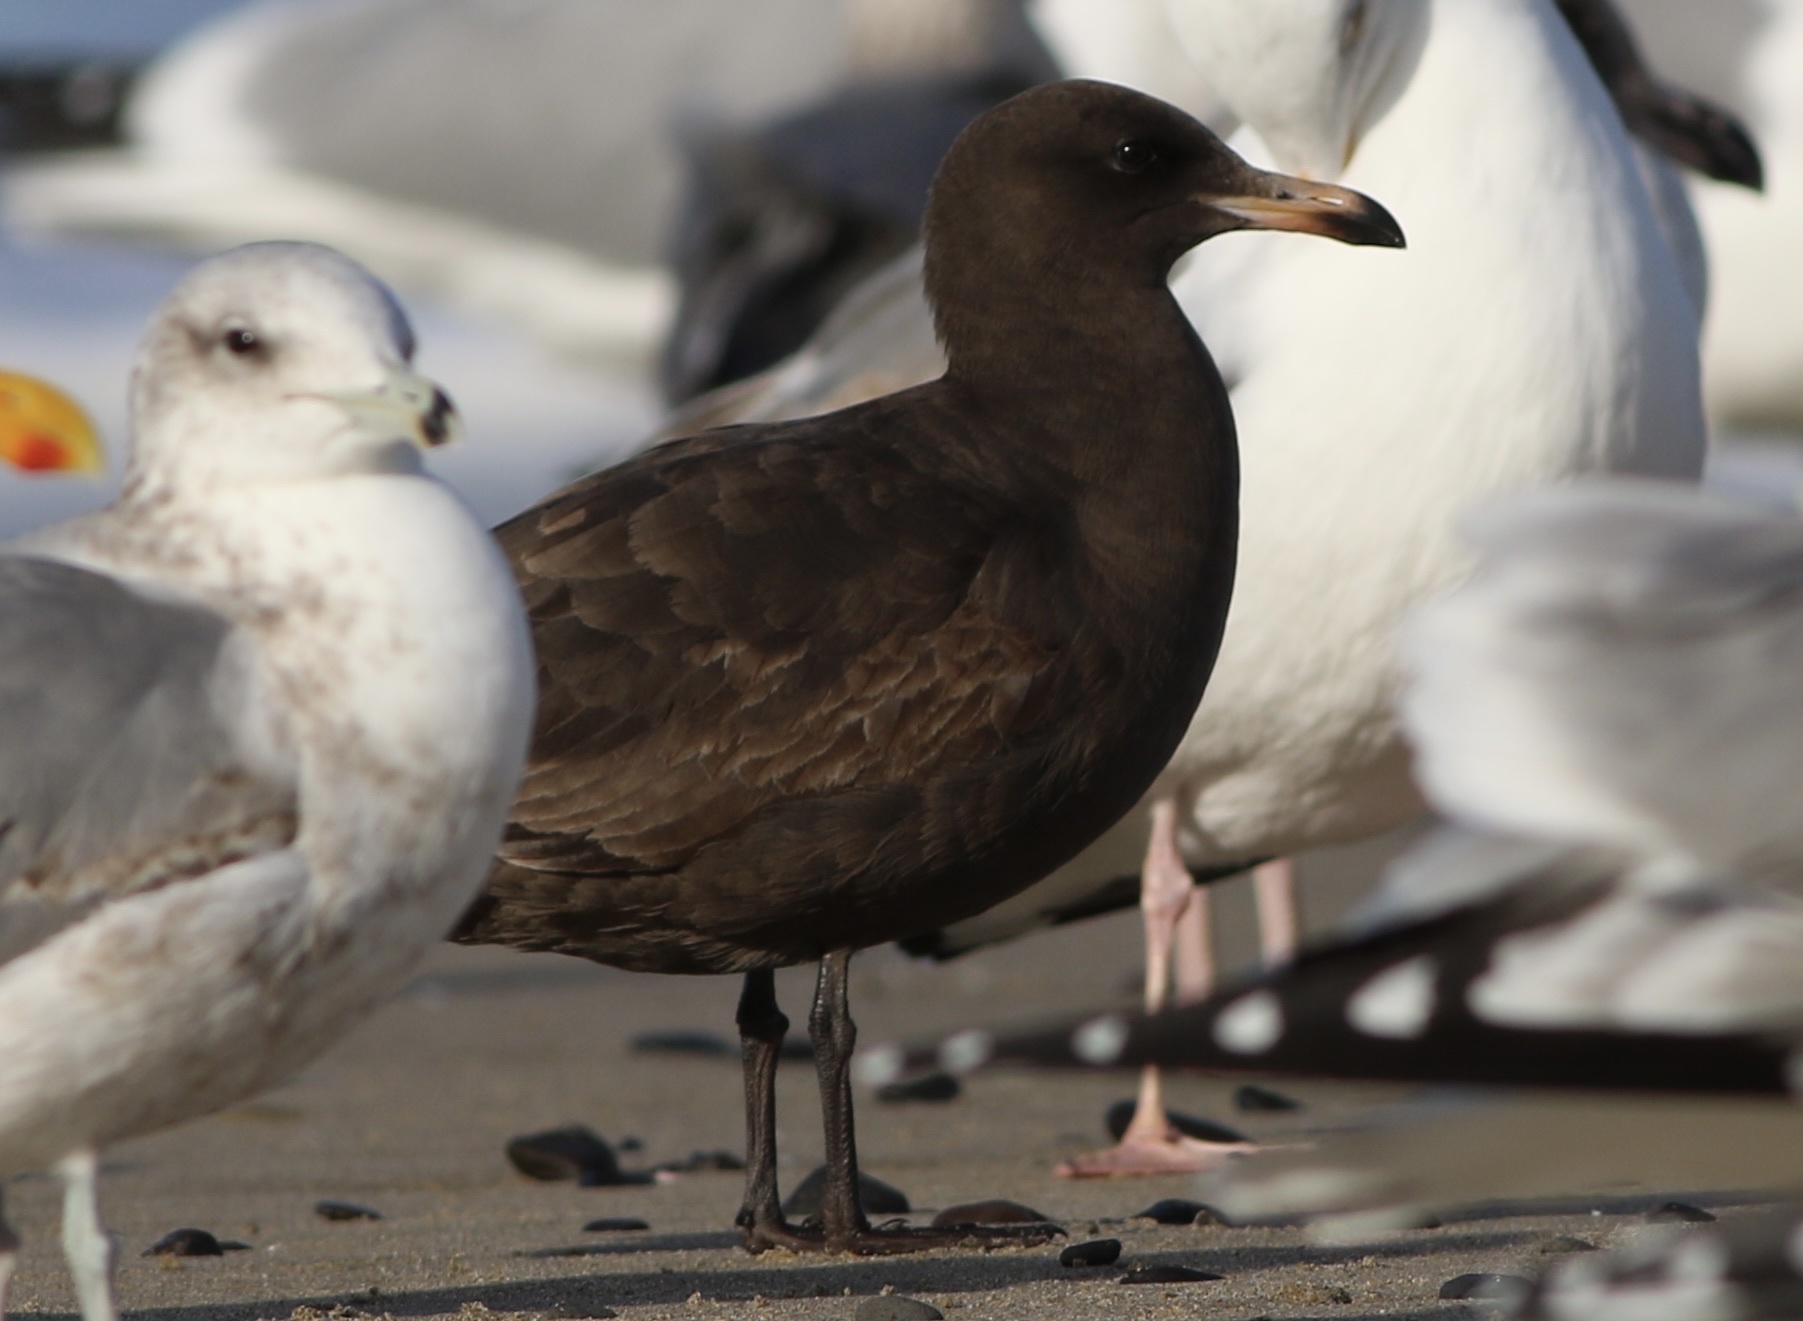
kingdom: Animalia
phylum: Chordata
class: Aves
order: Charadriiformes
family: Laridae
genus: Larus
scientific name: Larus heermanni
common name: Heermann's gull
